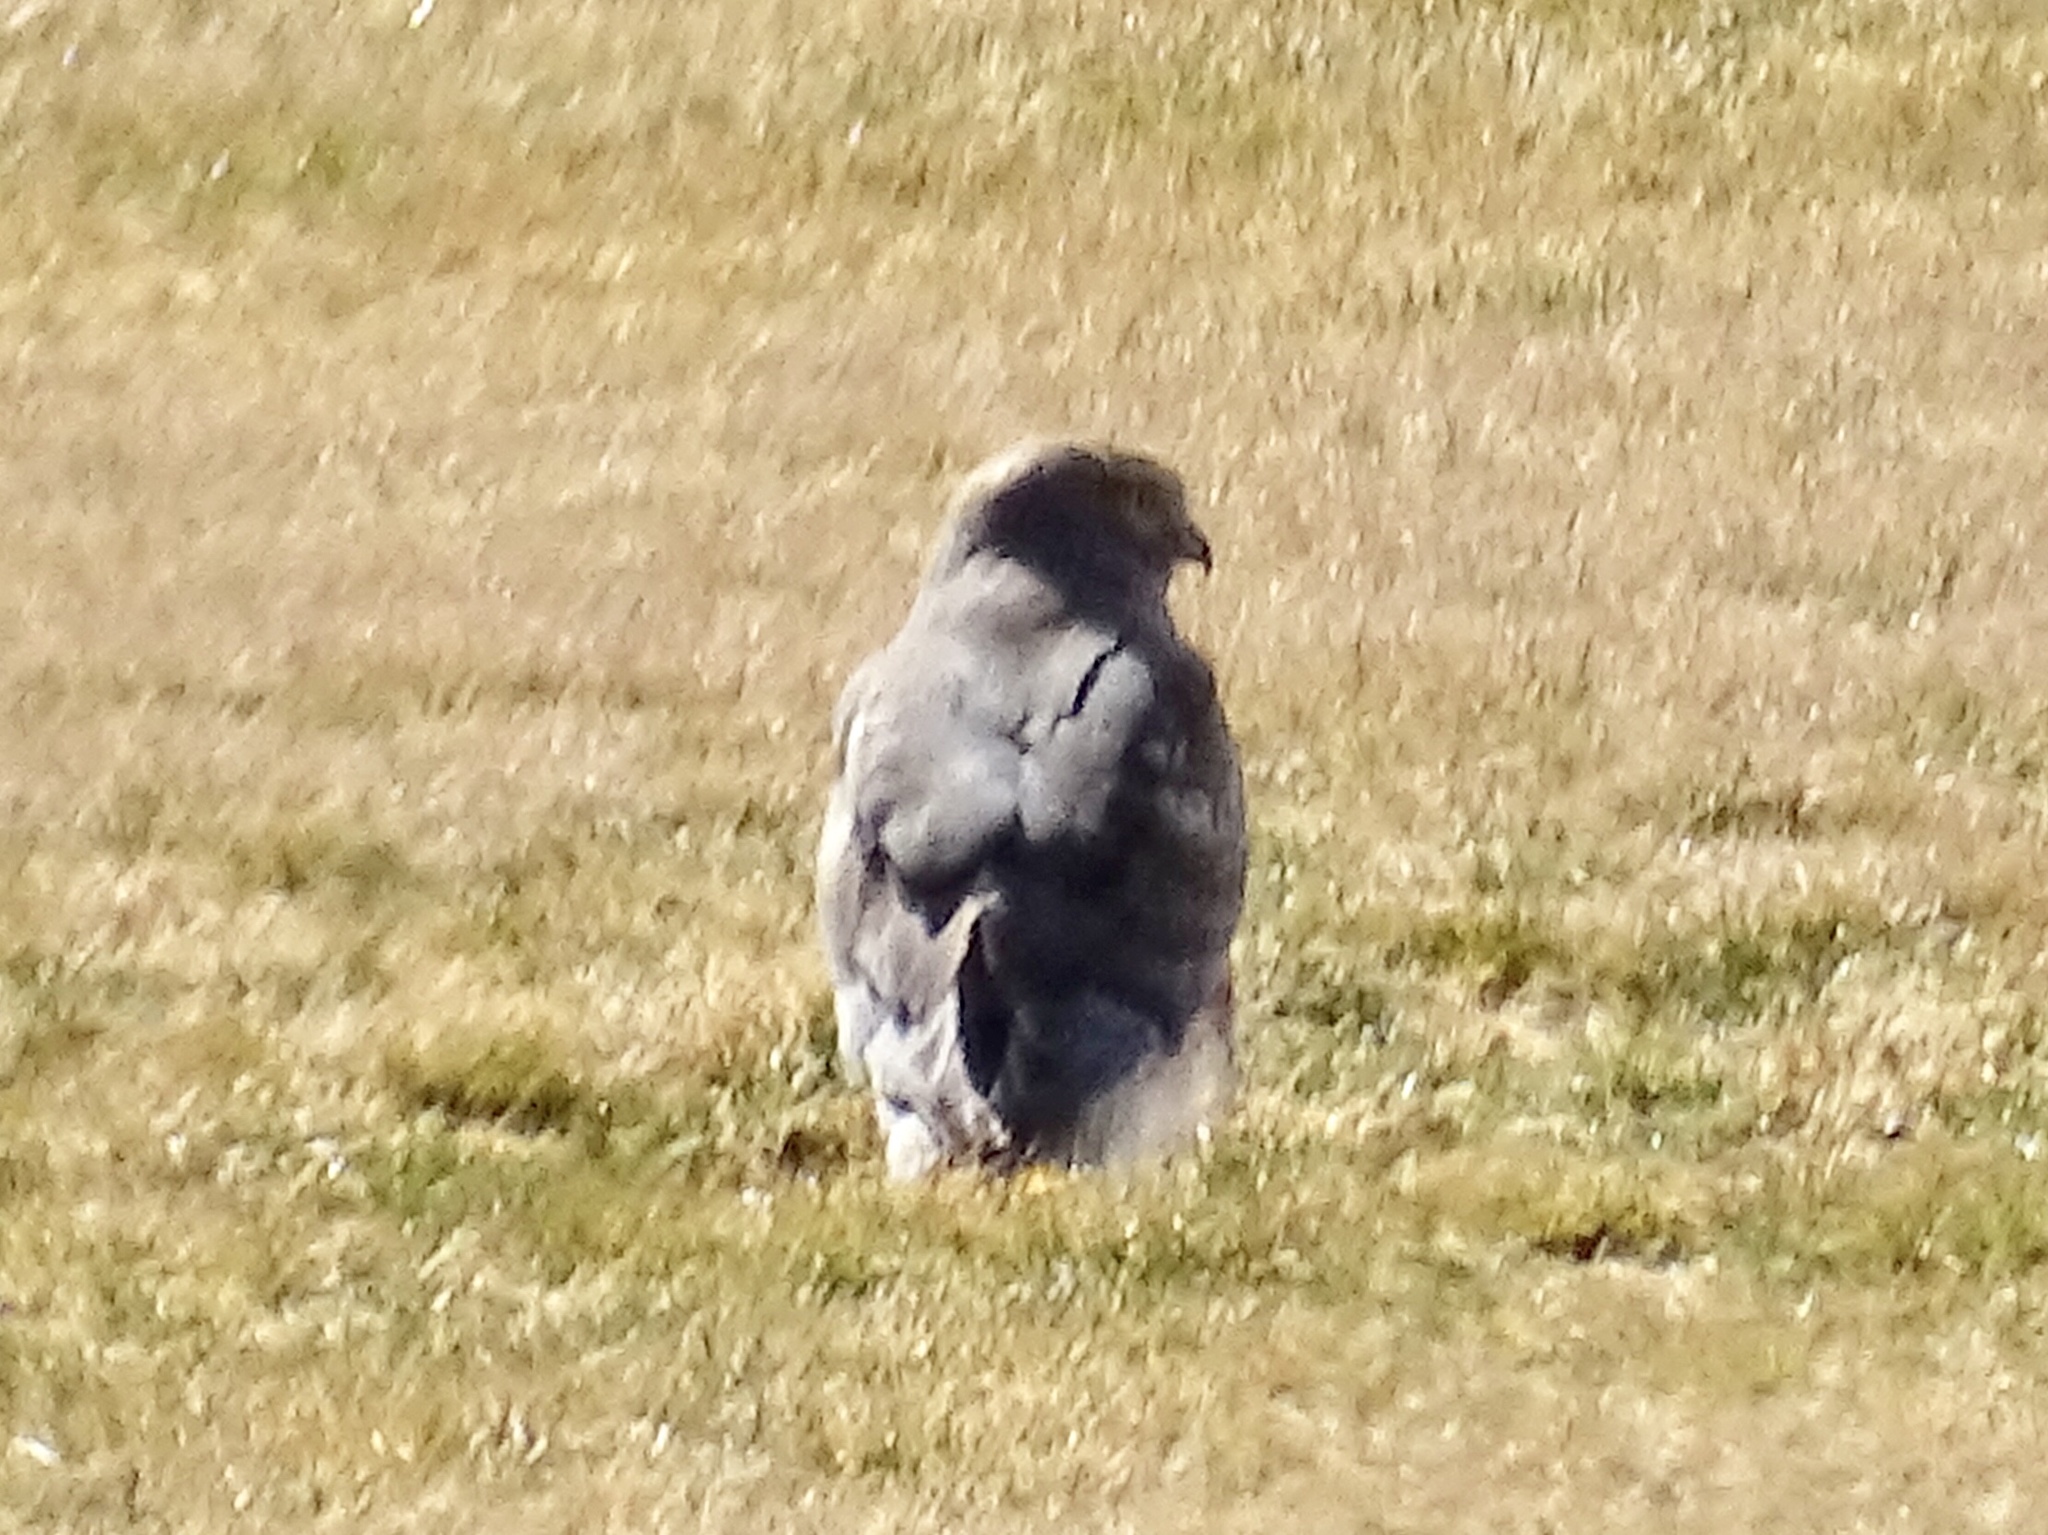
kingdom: Animalia
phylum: Chordata
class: Aves
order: Accipitriformes
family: Accipitridae
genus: Circus
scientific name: Circus cyaneus
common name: Hen harrier
